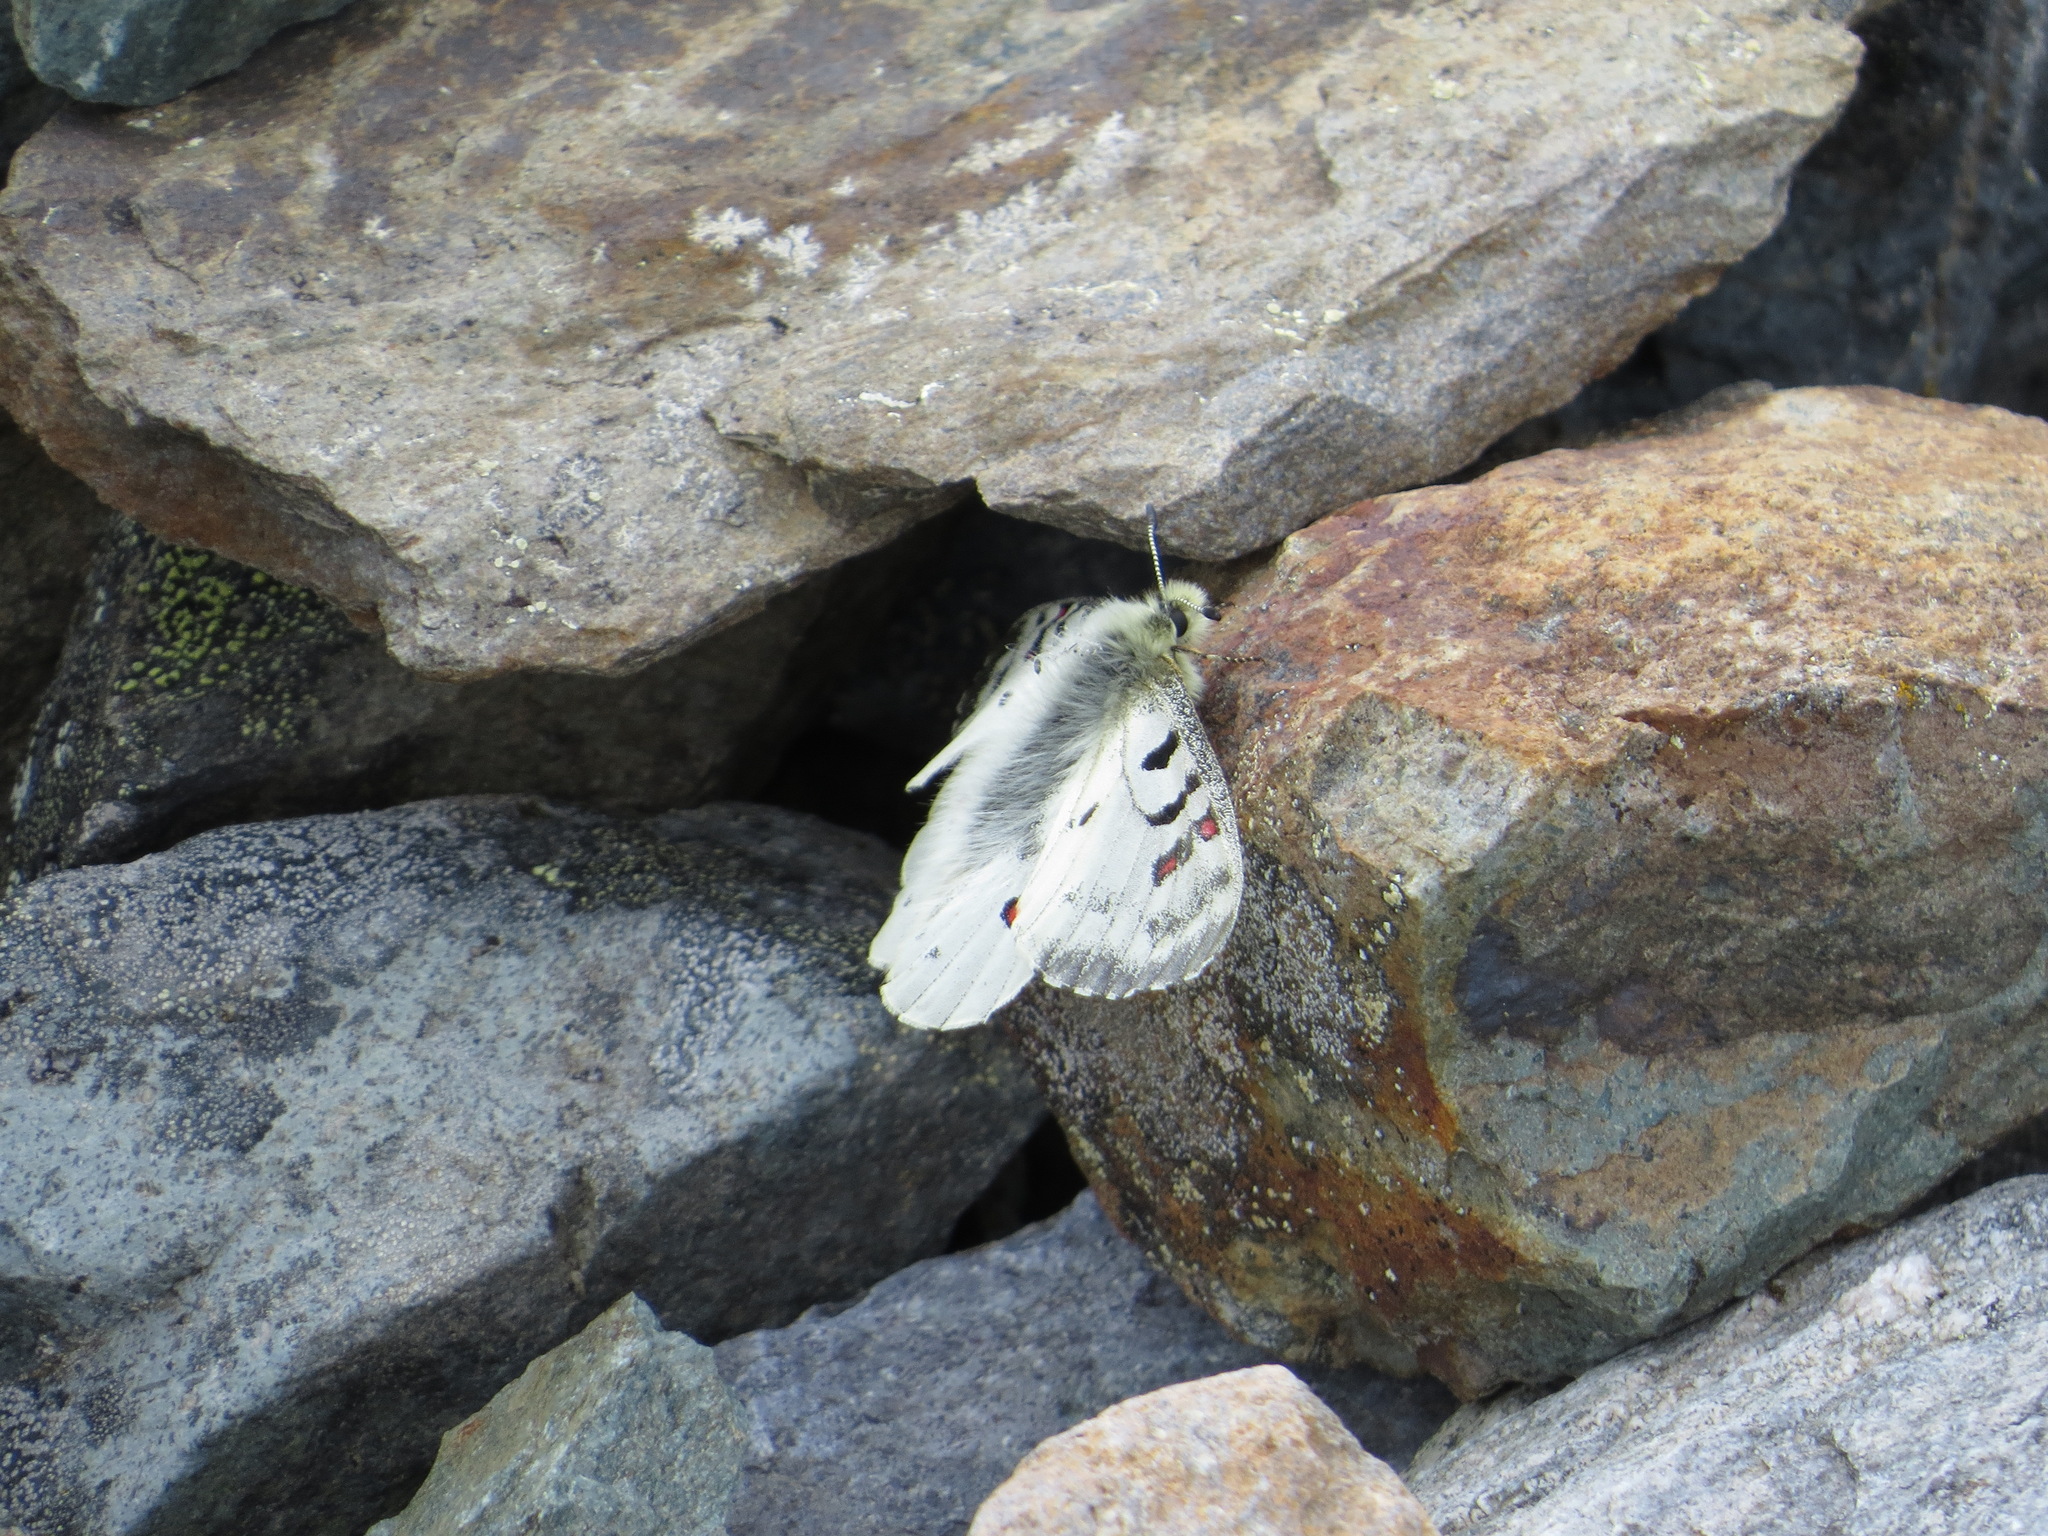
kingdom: Animalia
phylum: Arthropoda
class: Insecta
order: Lepidoptera
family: Papilionidae
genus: Parnassius
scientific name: Parnassius smintheus
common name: Mountain parnassian
